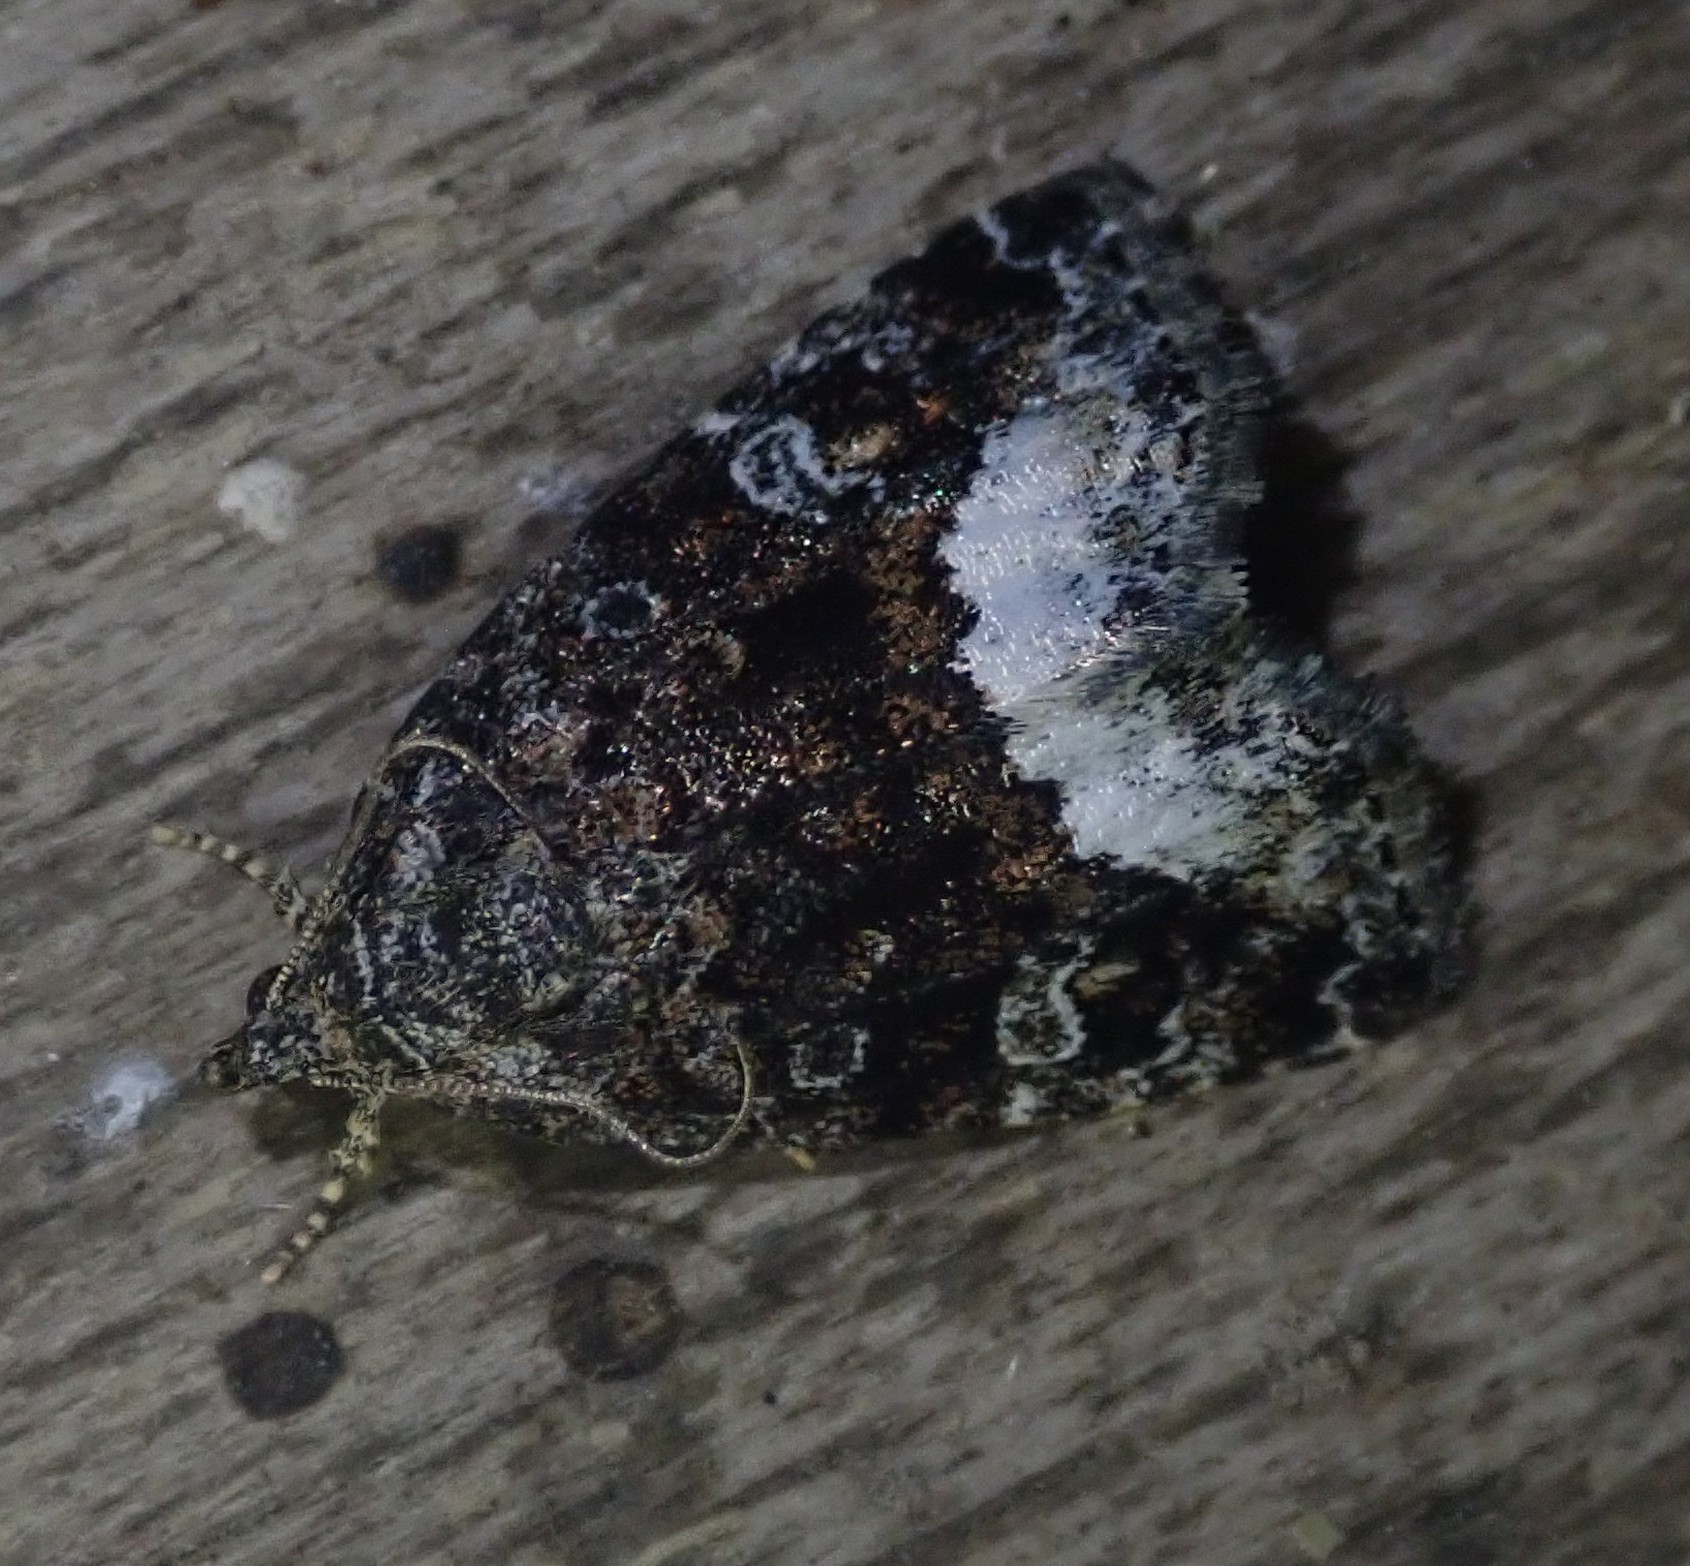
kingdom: Animalia
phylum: Arthropoda
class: Insecta
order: Lepidoptera
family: Noctuidae
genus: Deltote
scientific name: Deltote pygarga
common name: Marbled white spot
